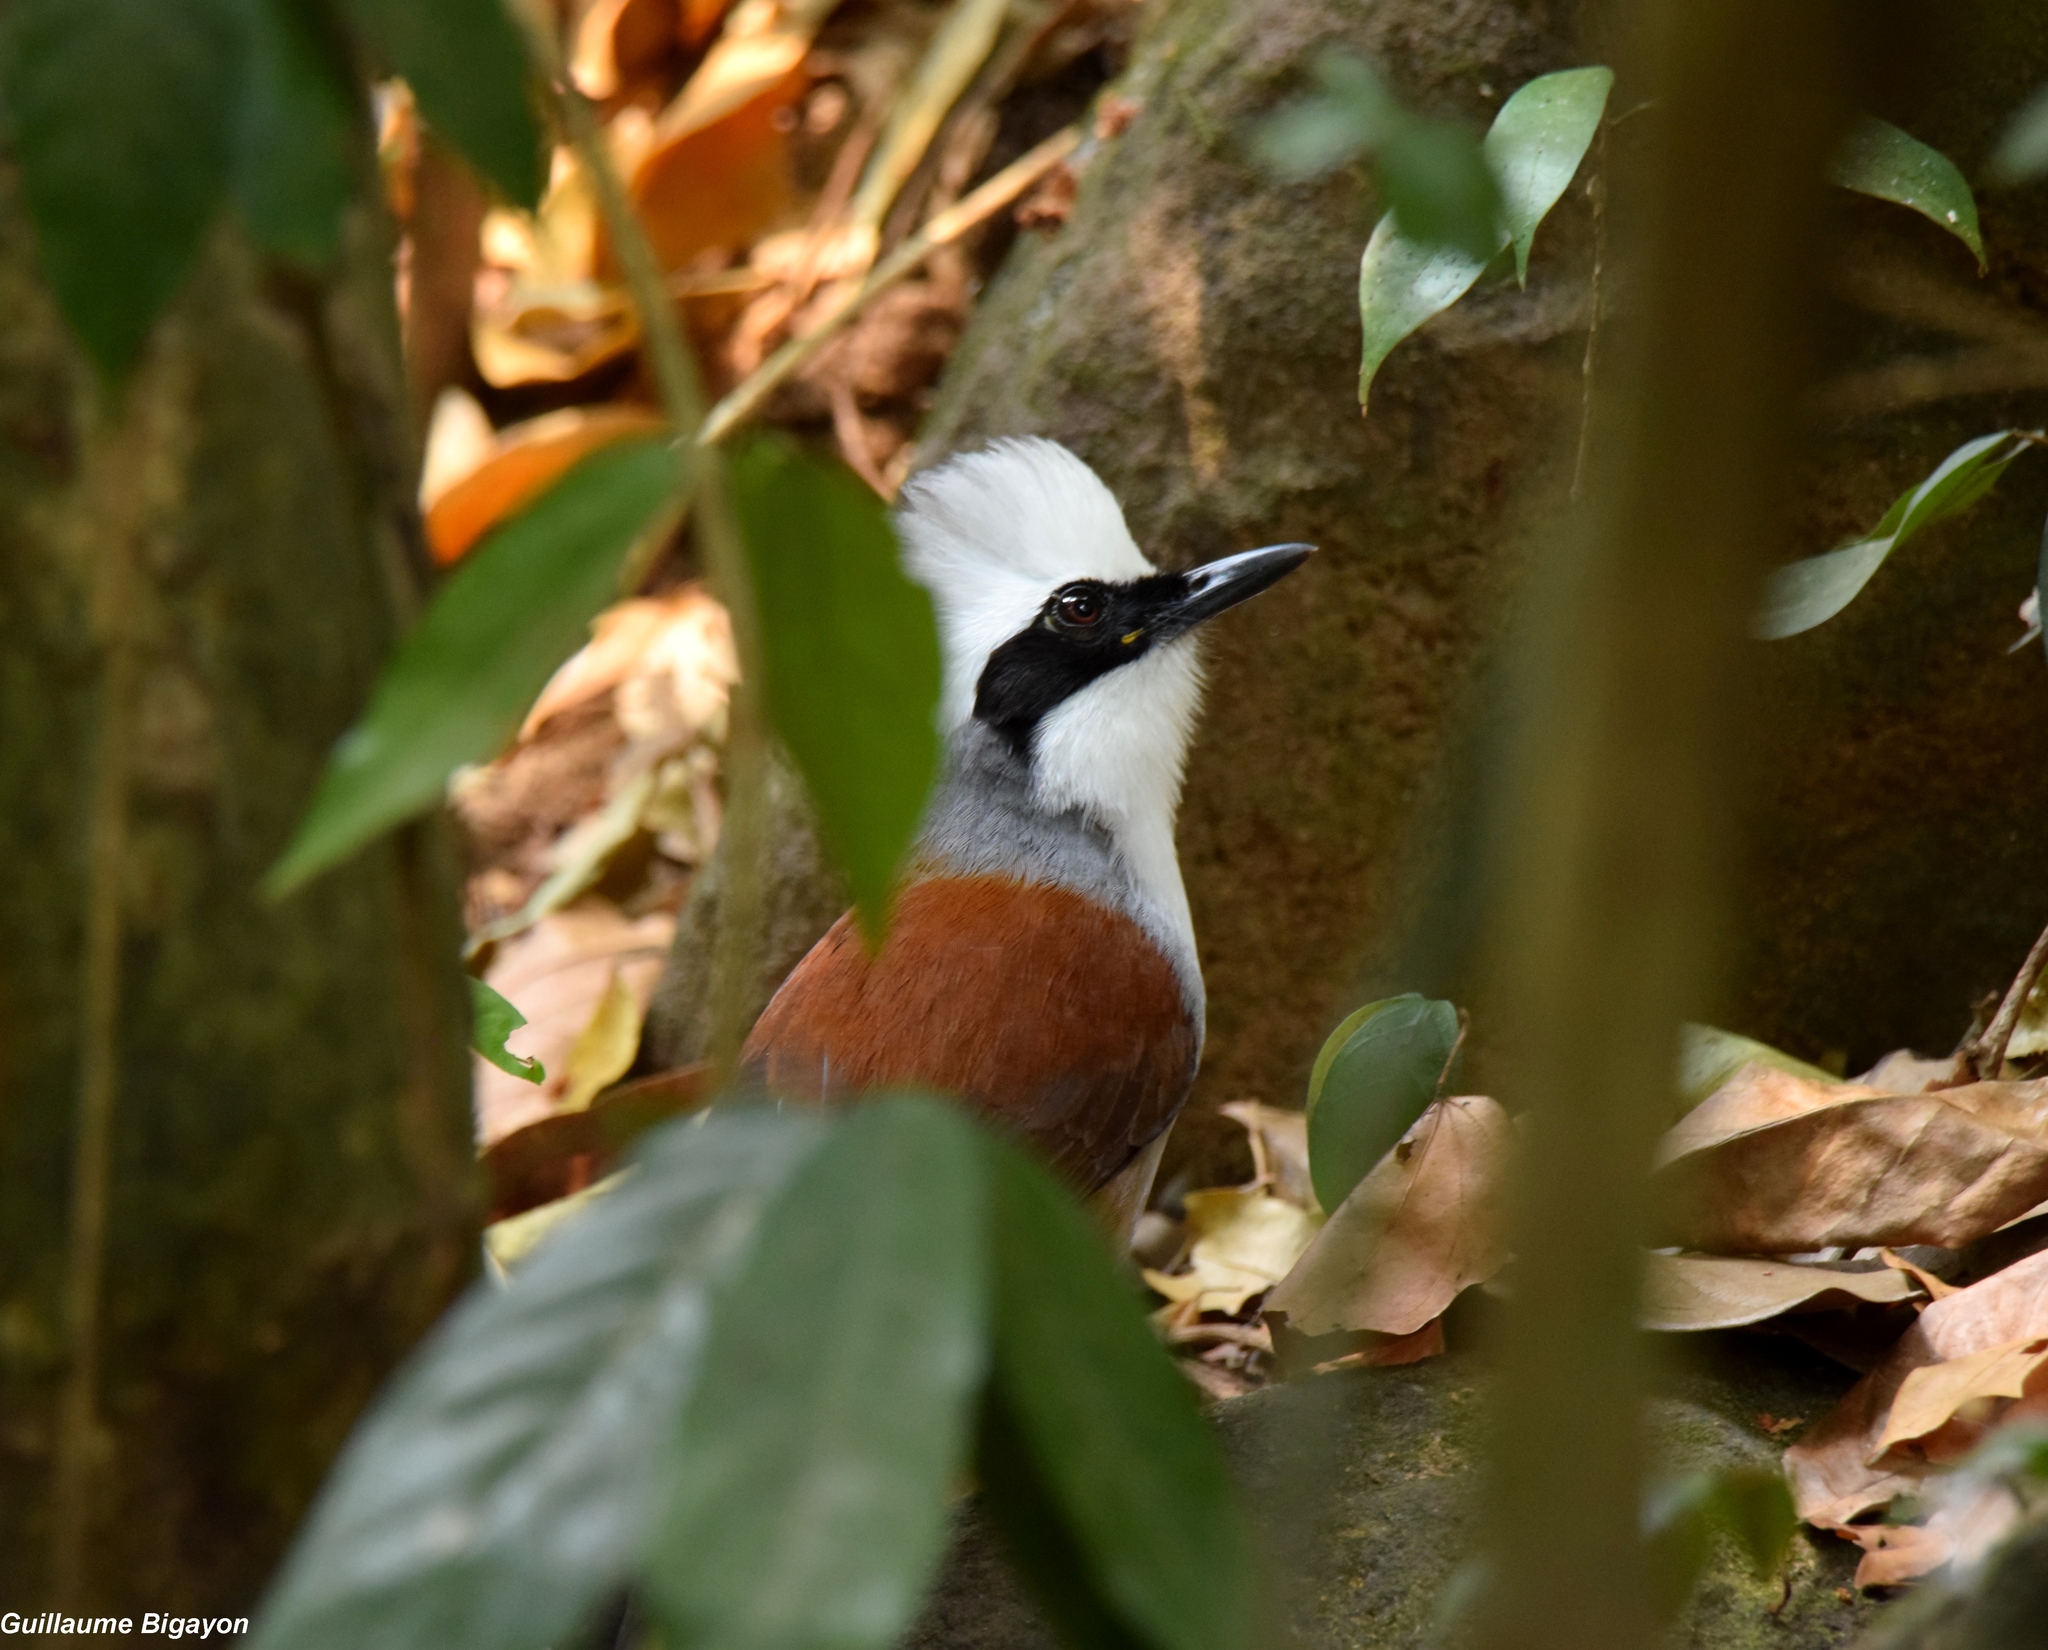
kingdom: Animalia
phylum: Chordata
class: Aves
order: Passeriformes
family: Leiothrichidae
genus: Garrulax
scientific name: Garrulax leucolophus
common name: White-crested laughingthrush
